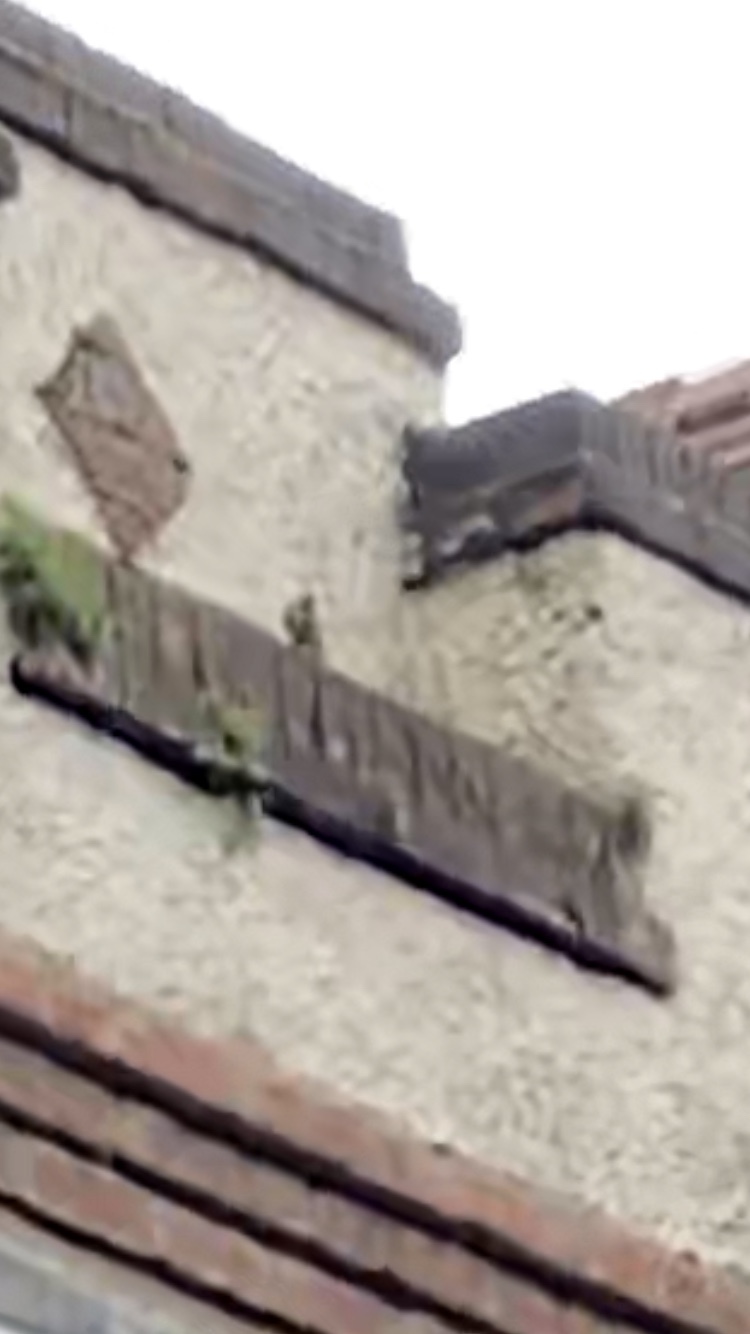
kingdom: Animalia
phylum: Chordata
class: Aves
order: Passeriformes
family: Fringillidae
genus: Carduelis
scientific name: Carduelis carduelis
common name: European goldfinch
